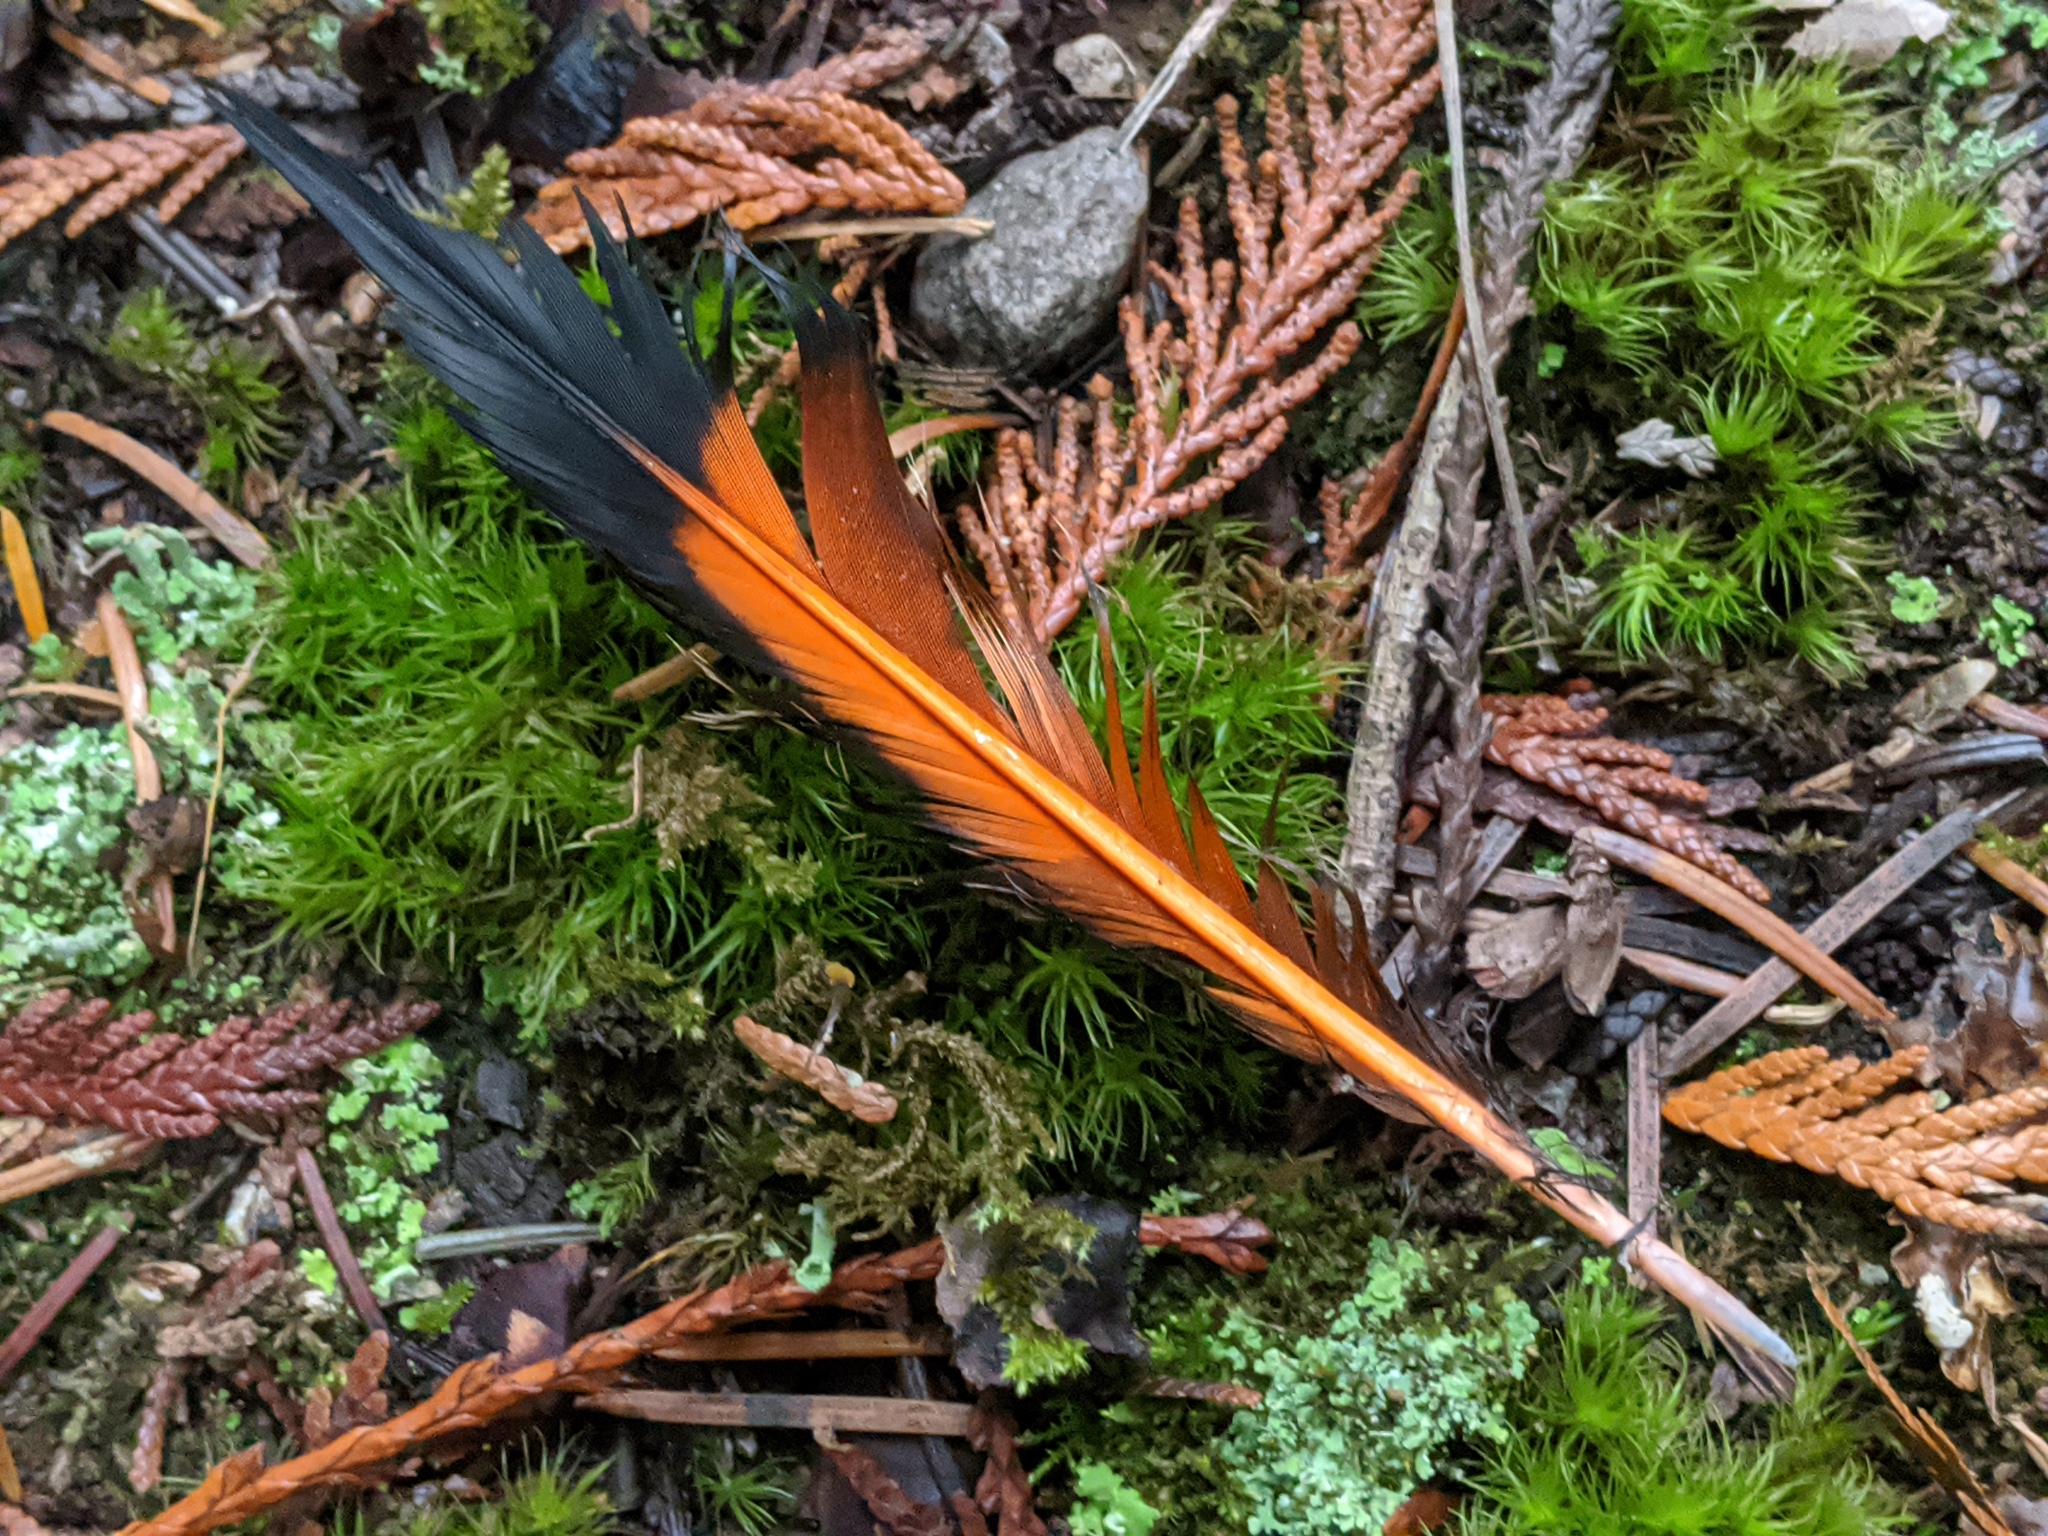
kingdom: Animalia
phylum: Chordata
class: Aves
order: Piciformes
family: Picidae
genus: Colaptes
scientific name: Colaptes auratus
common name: Northern flicker
